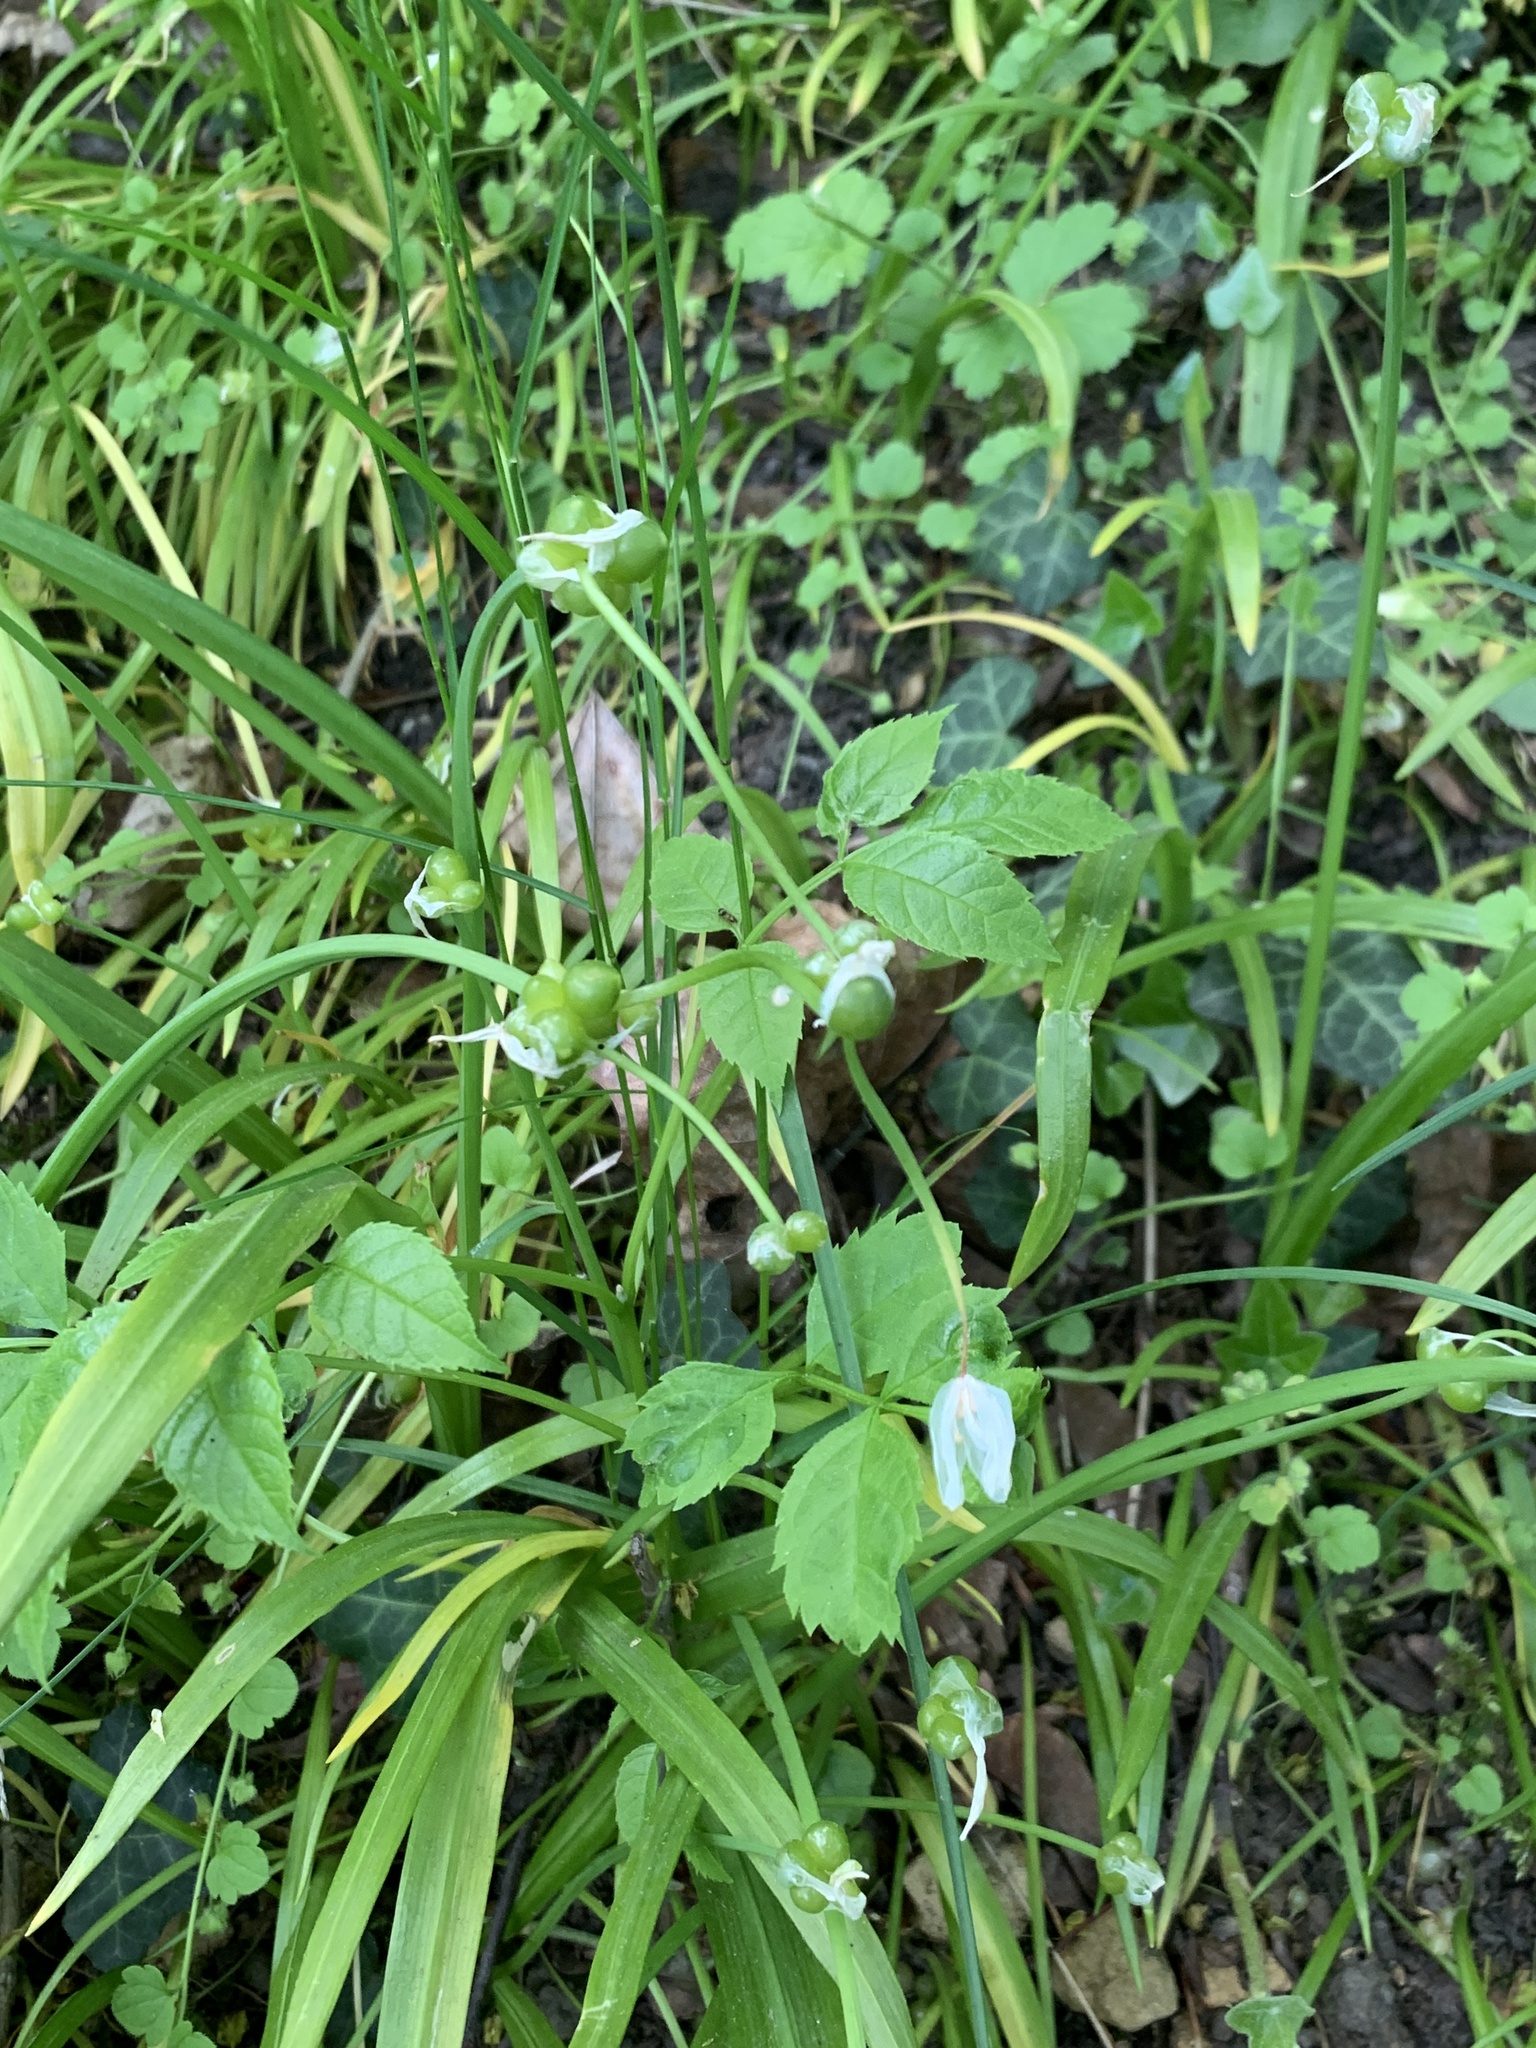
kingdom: Plantae
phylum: Tracheophyta
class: Liliopsida
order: Asparagales
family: Amaryllidaceae
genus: Allium
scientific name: Allium paradoxum
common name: Few-flowered garlic
